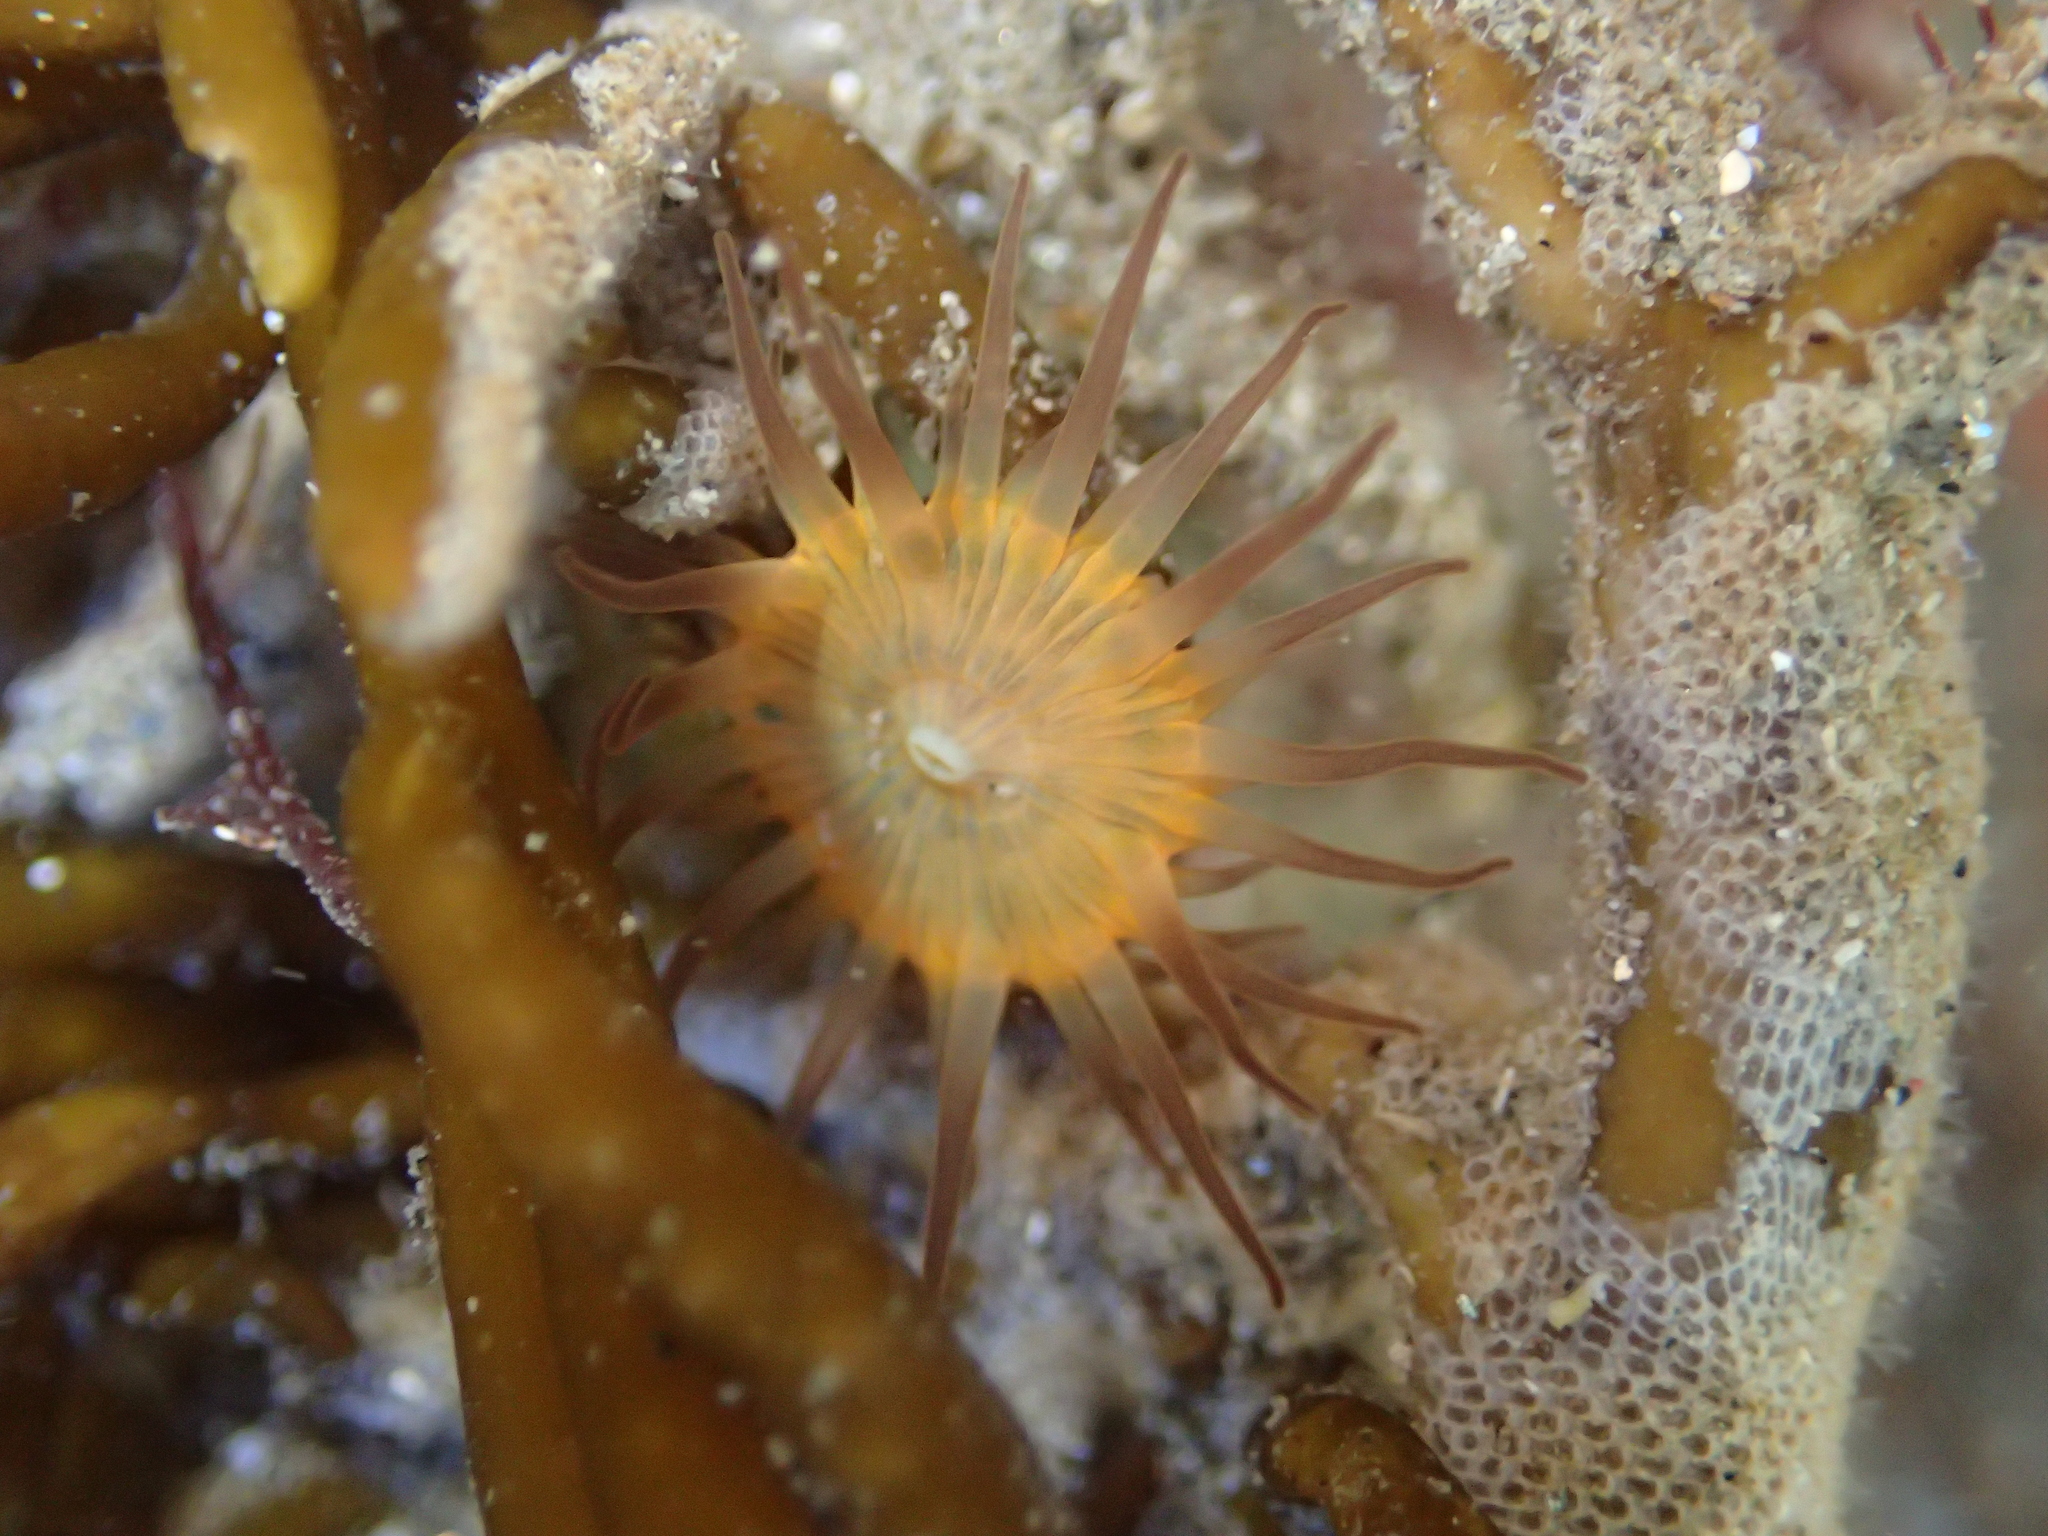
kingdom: Animalia
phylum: Cnidaria
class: Anthozoa
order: Actiniaria
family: Hormathiidae
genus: Handactis
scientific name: Handactis nutrix
